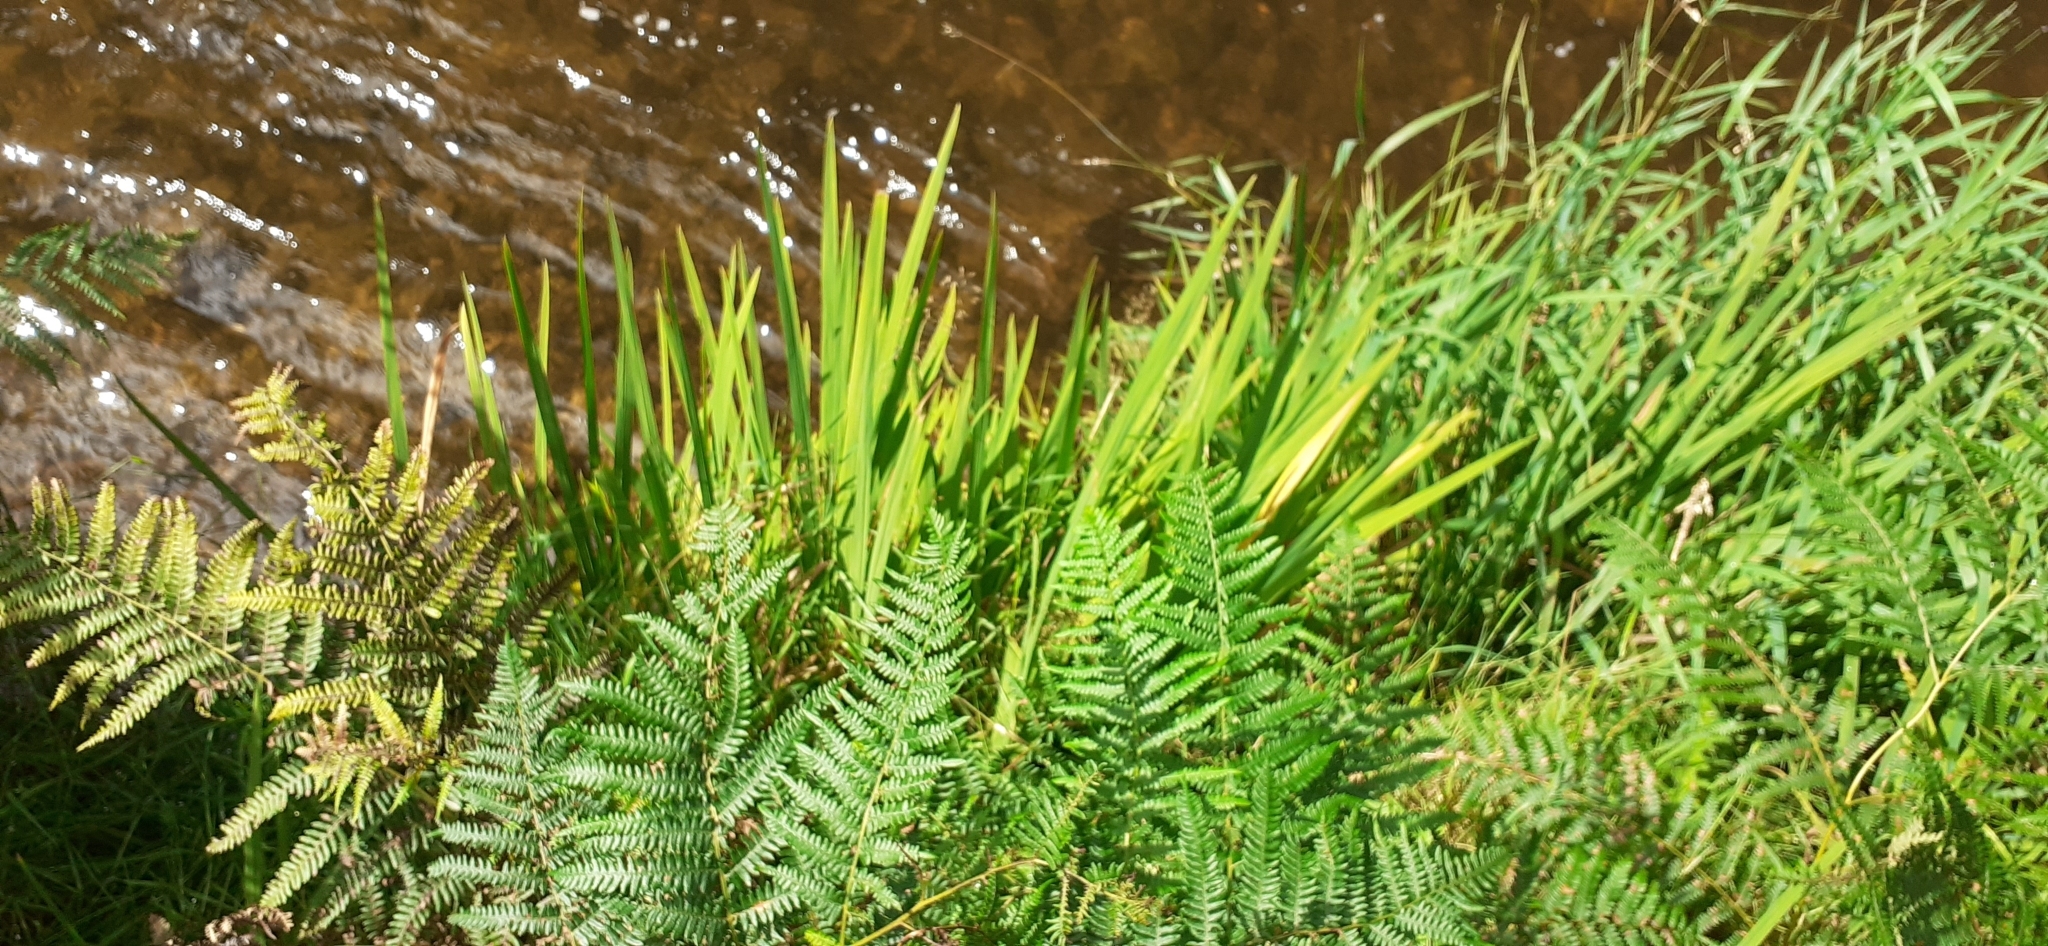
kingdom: Plantae
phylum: Tracheophyta
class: Liliopsida
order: Asparagales
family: Iridaceae
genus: Crocosmia
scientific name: Crocosmia crocosmiiflora
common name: Montbretia
